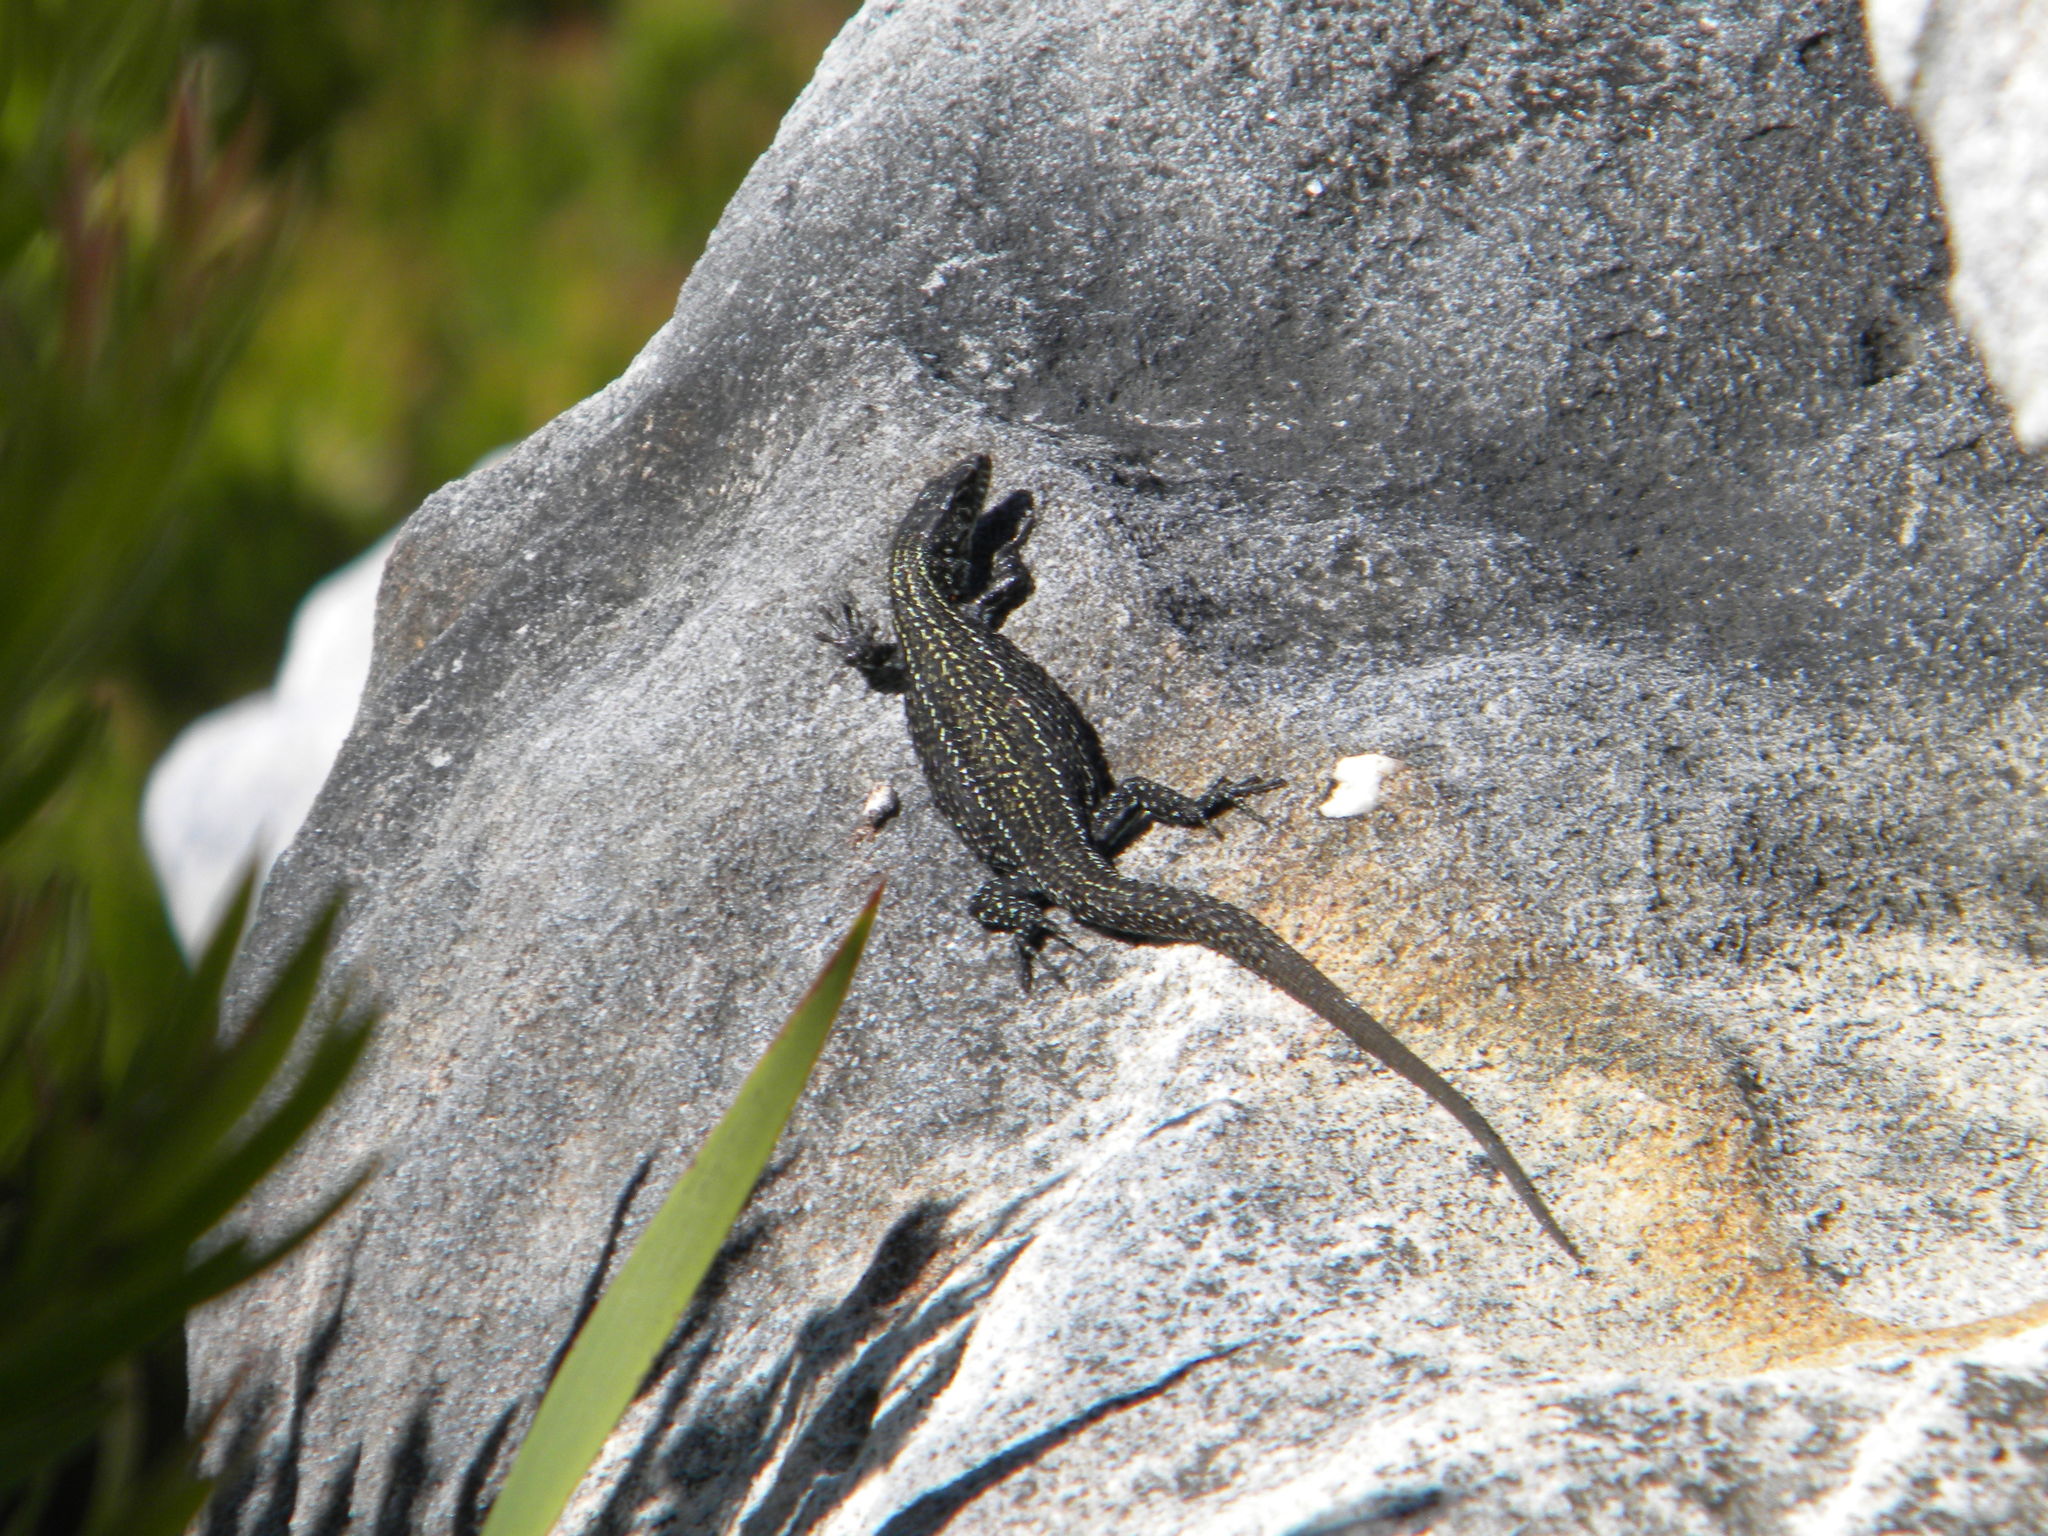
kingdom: Animalia
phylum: Chordata
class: Squamata
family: Lacertidae
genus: Tropidosaura
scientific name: Tropidosaura gularis
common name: Cape mountain lizard
